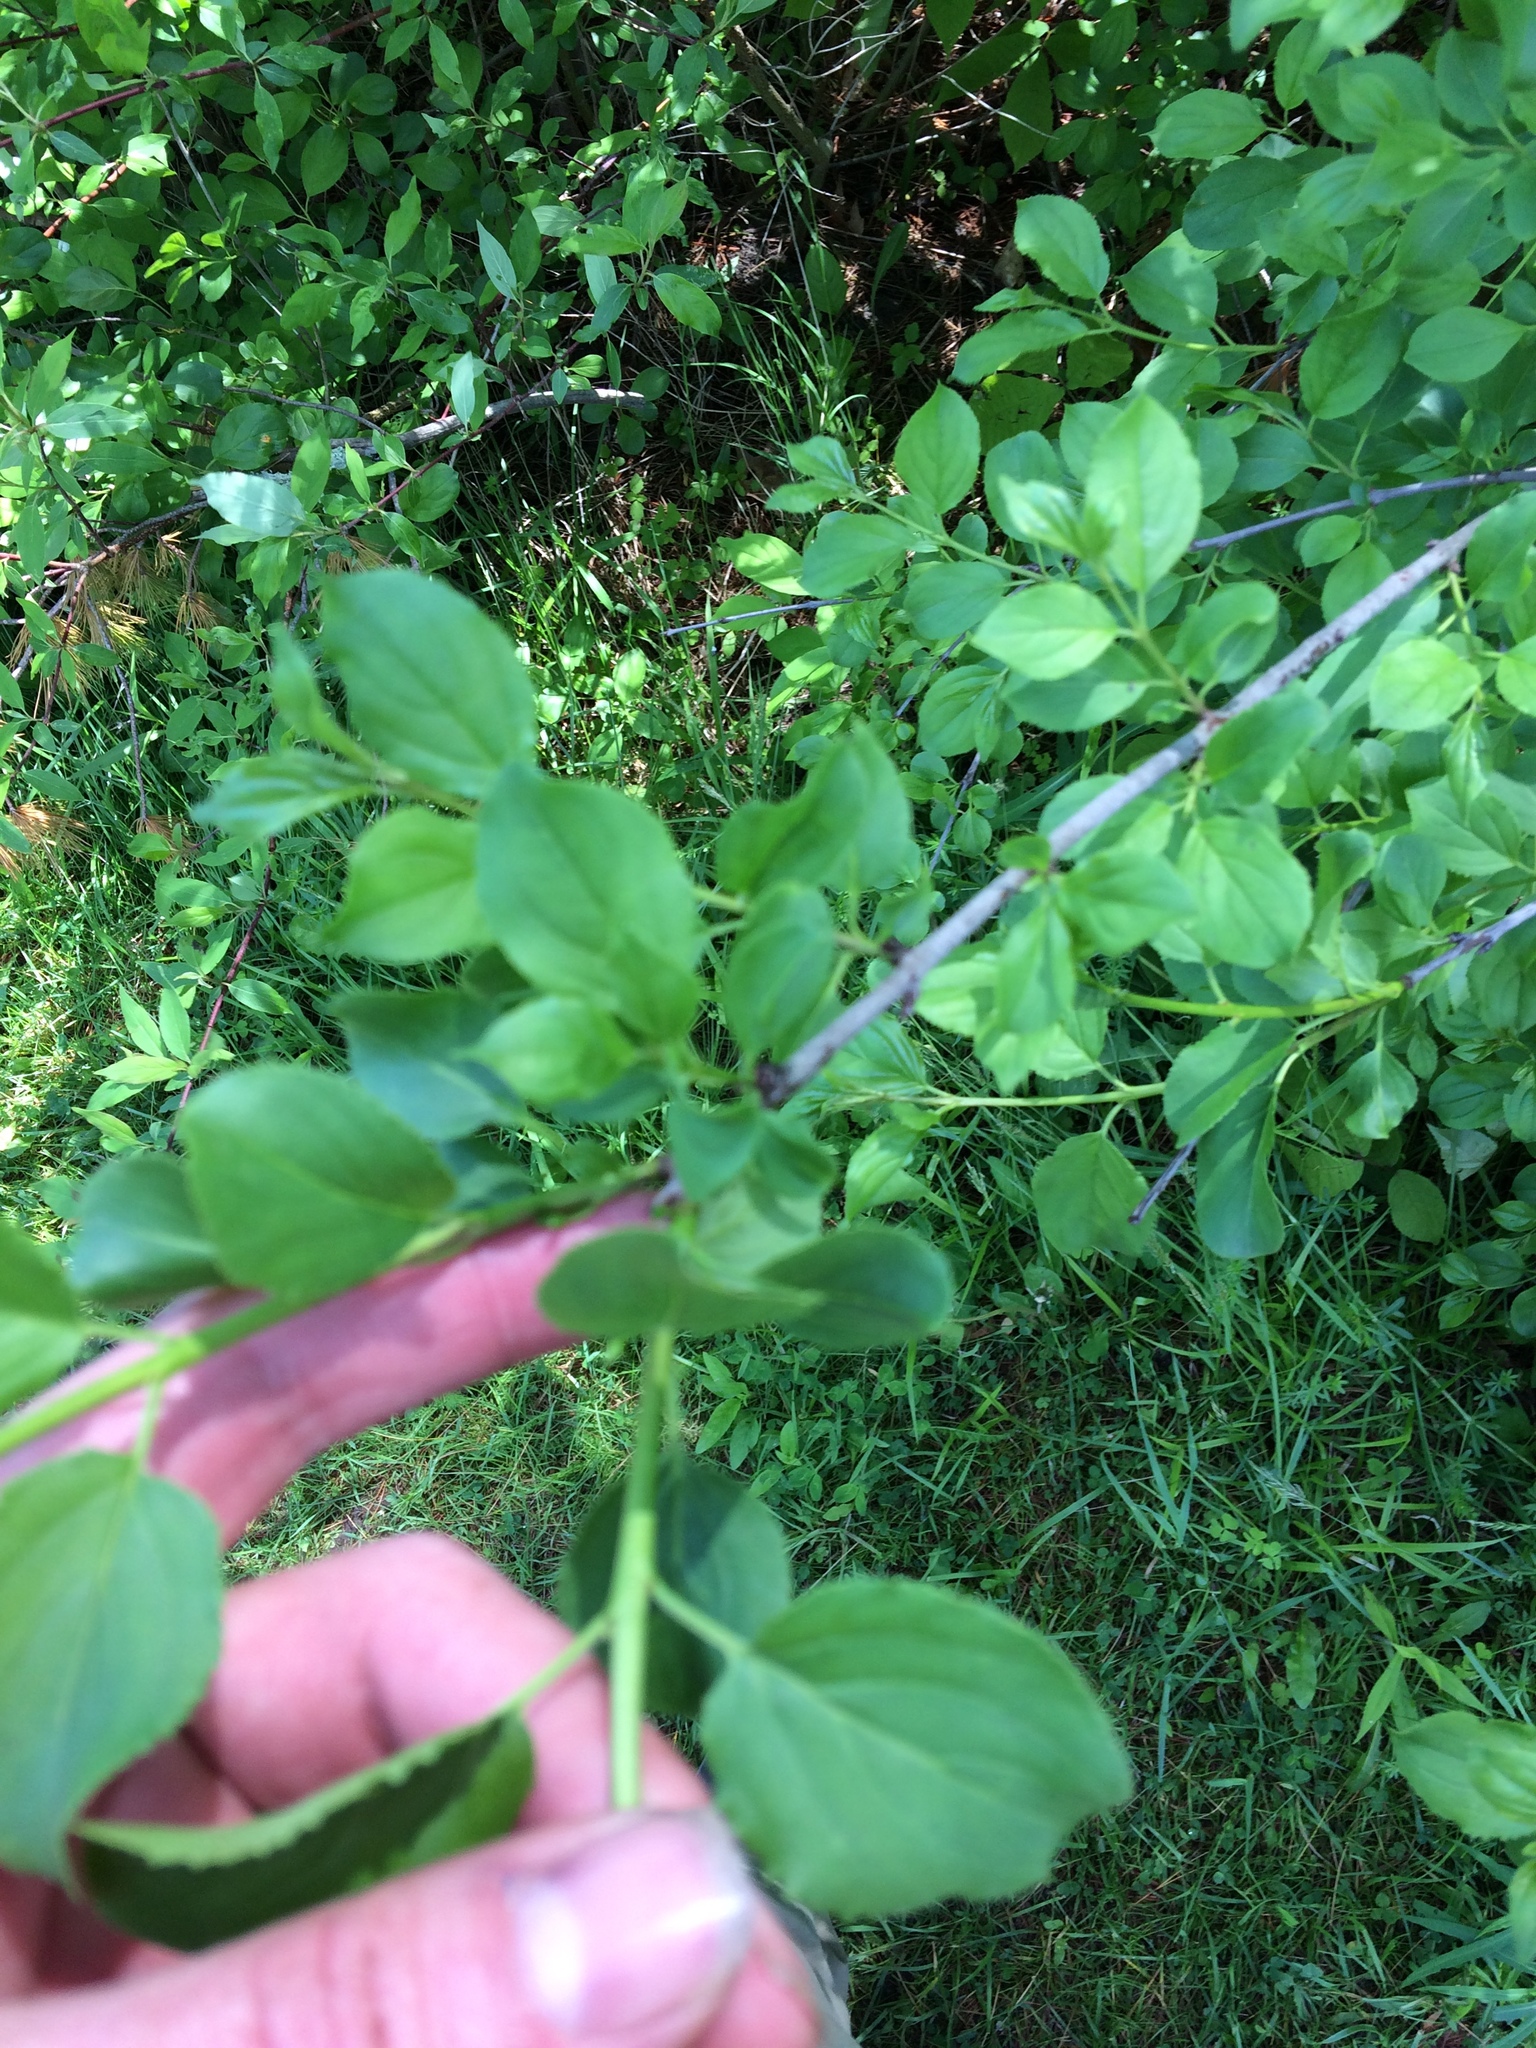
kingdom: Plantae
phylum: Tracheophyta
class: Magnoliopsida
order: Rosales
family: Rhamnaceae
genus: Rhamnus
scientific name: Rhamnus cathartica
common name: Common buckthorn
